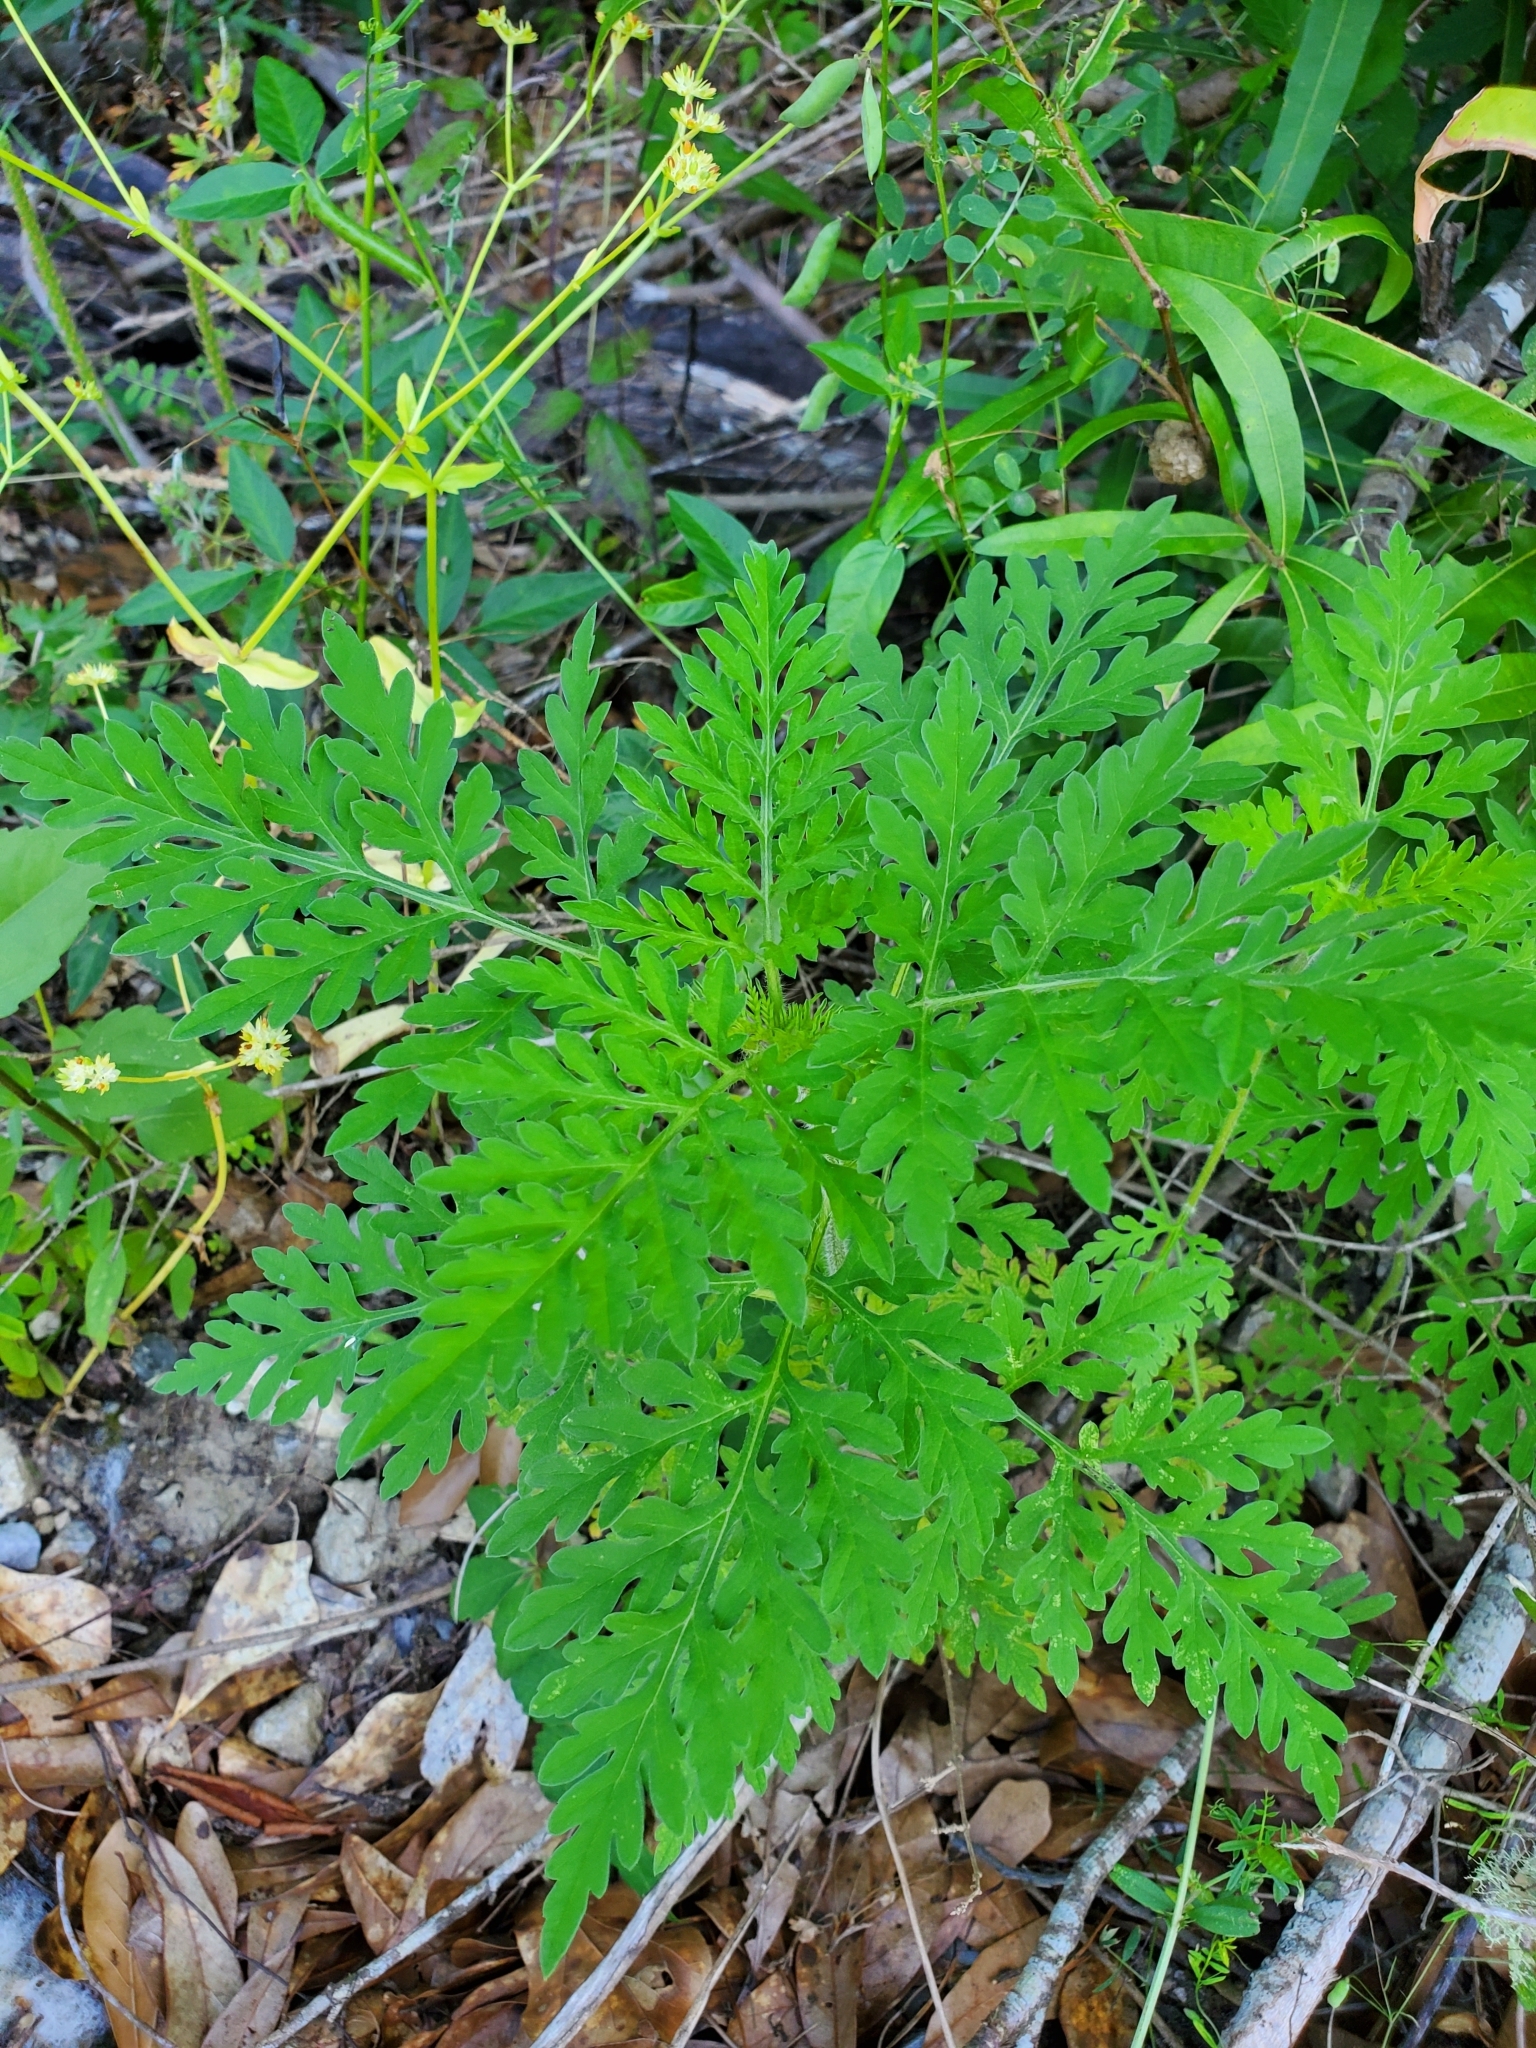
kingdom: Plantae
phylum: Tracheophyta
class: Magnoliopsida
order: Asterales
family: Asteraceae
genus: Ambrosia
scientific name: Ambrosia artemisiifolia
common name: Annual ragweed
